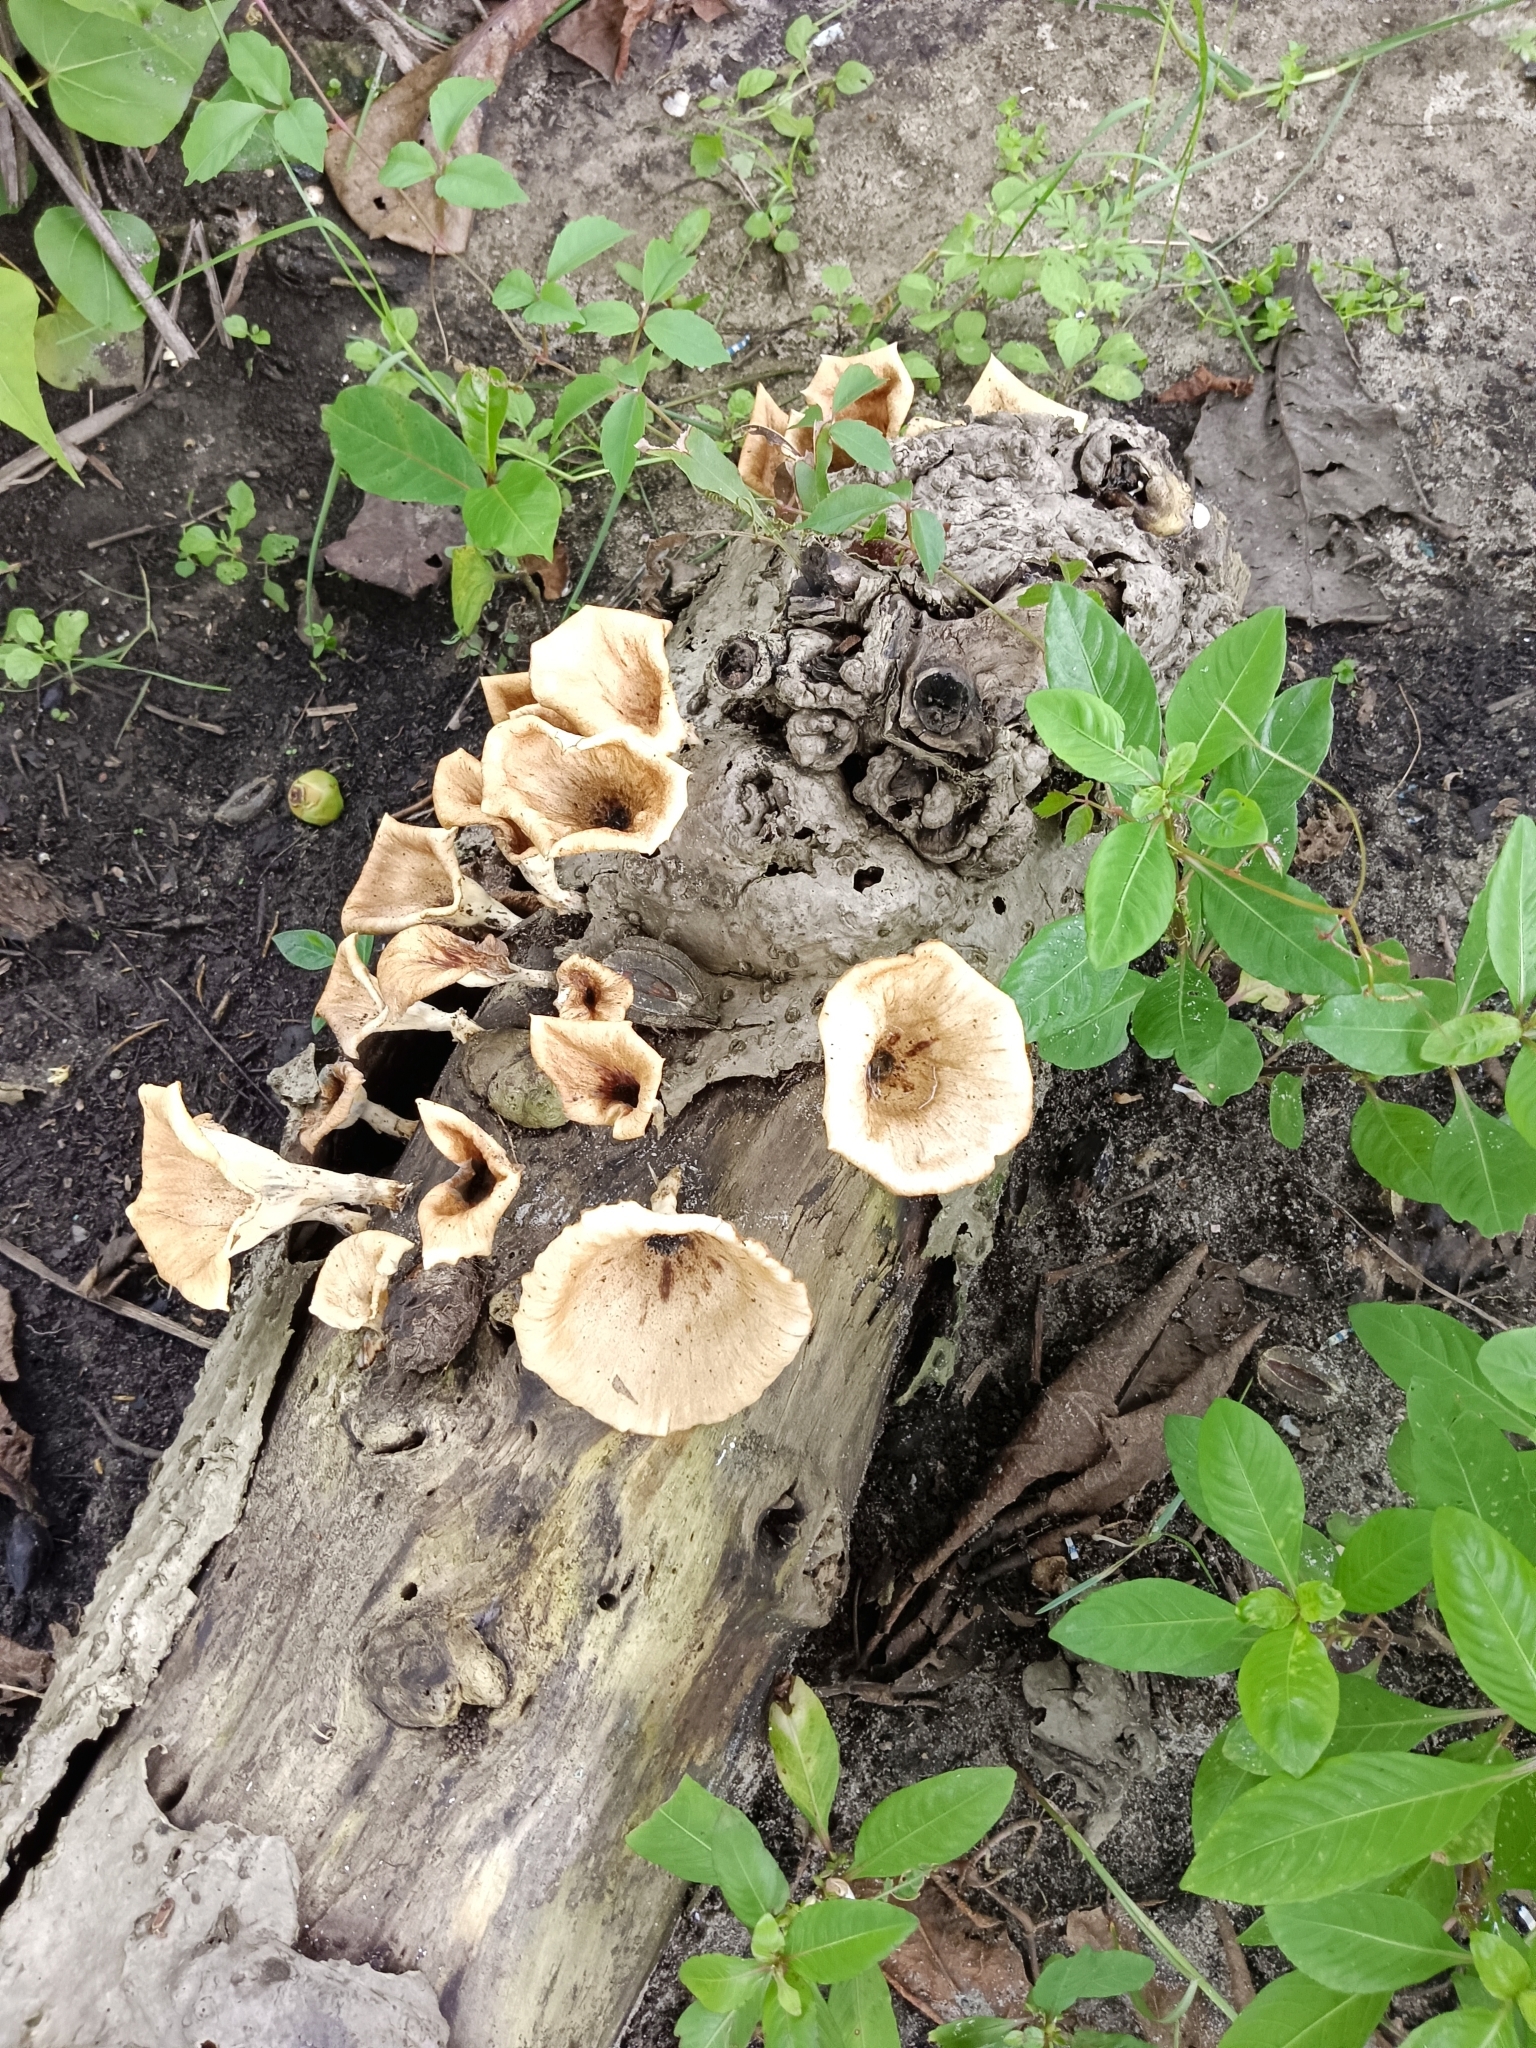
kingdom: Fungi
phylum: Basidiomycota
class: Agaricomycetes
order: Polyporales
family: Polyporaceae
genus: Lentinus
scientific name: Lentinus sajor-caju
